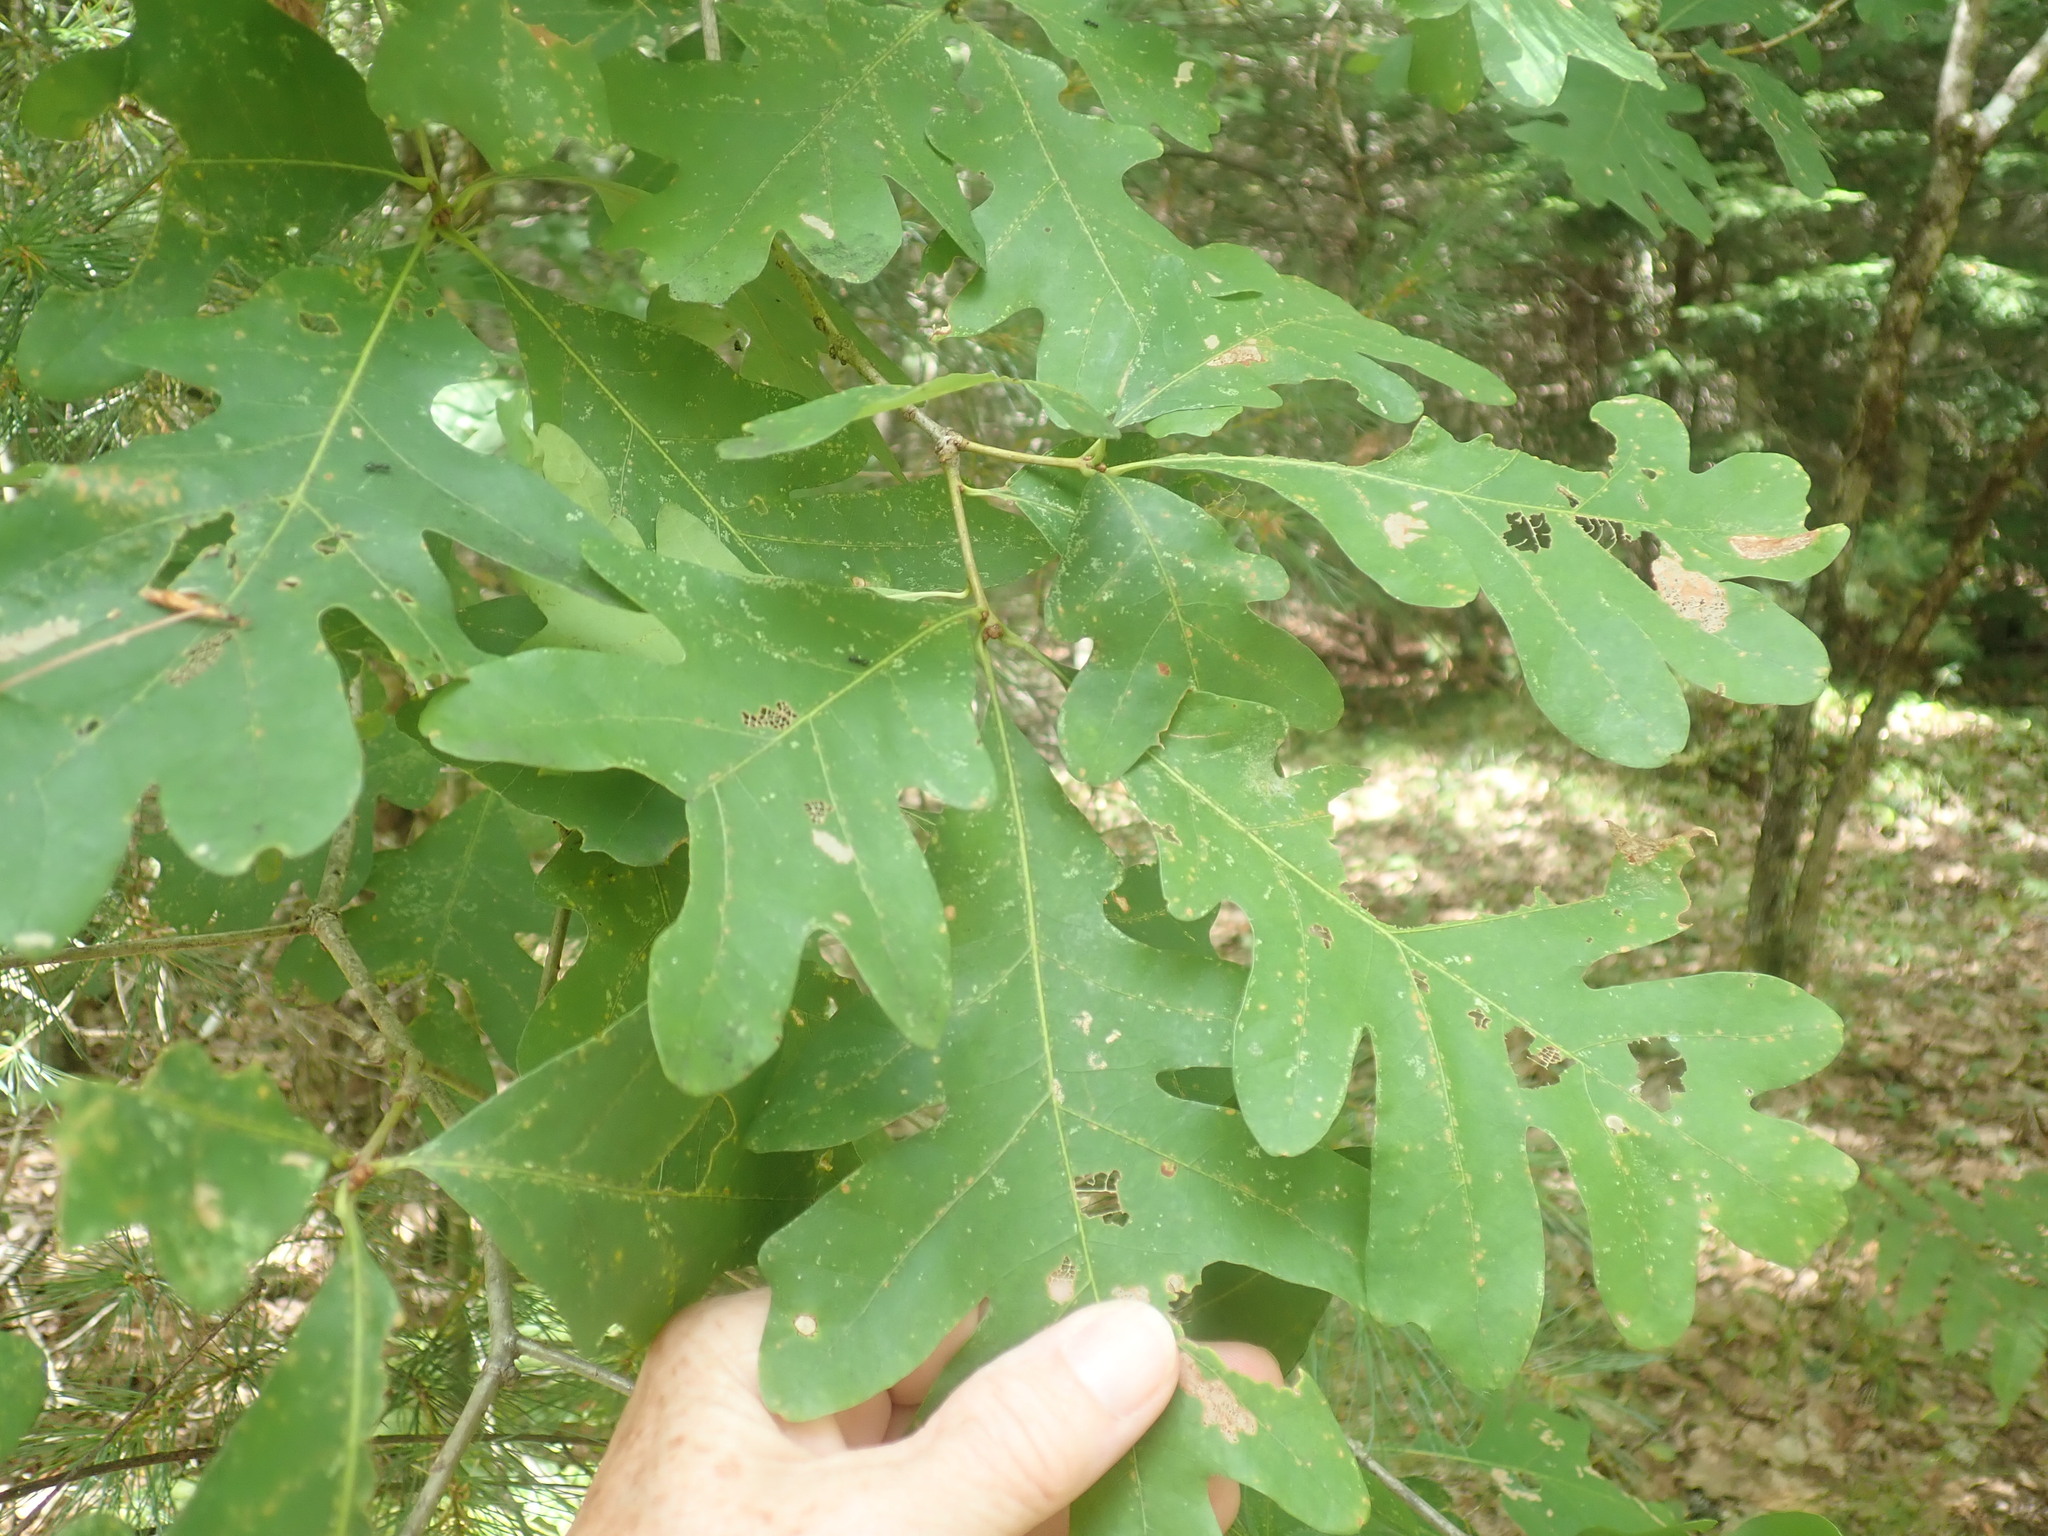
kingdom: Plantae
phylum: Tracheophyta
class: Magnoliopsida
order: Fagales
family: Fagaceae
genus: Quercus
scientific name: Quercus alba
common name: White oak
